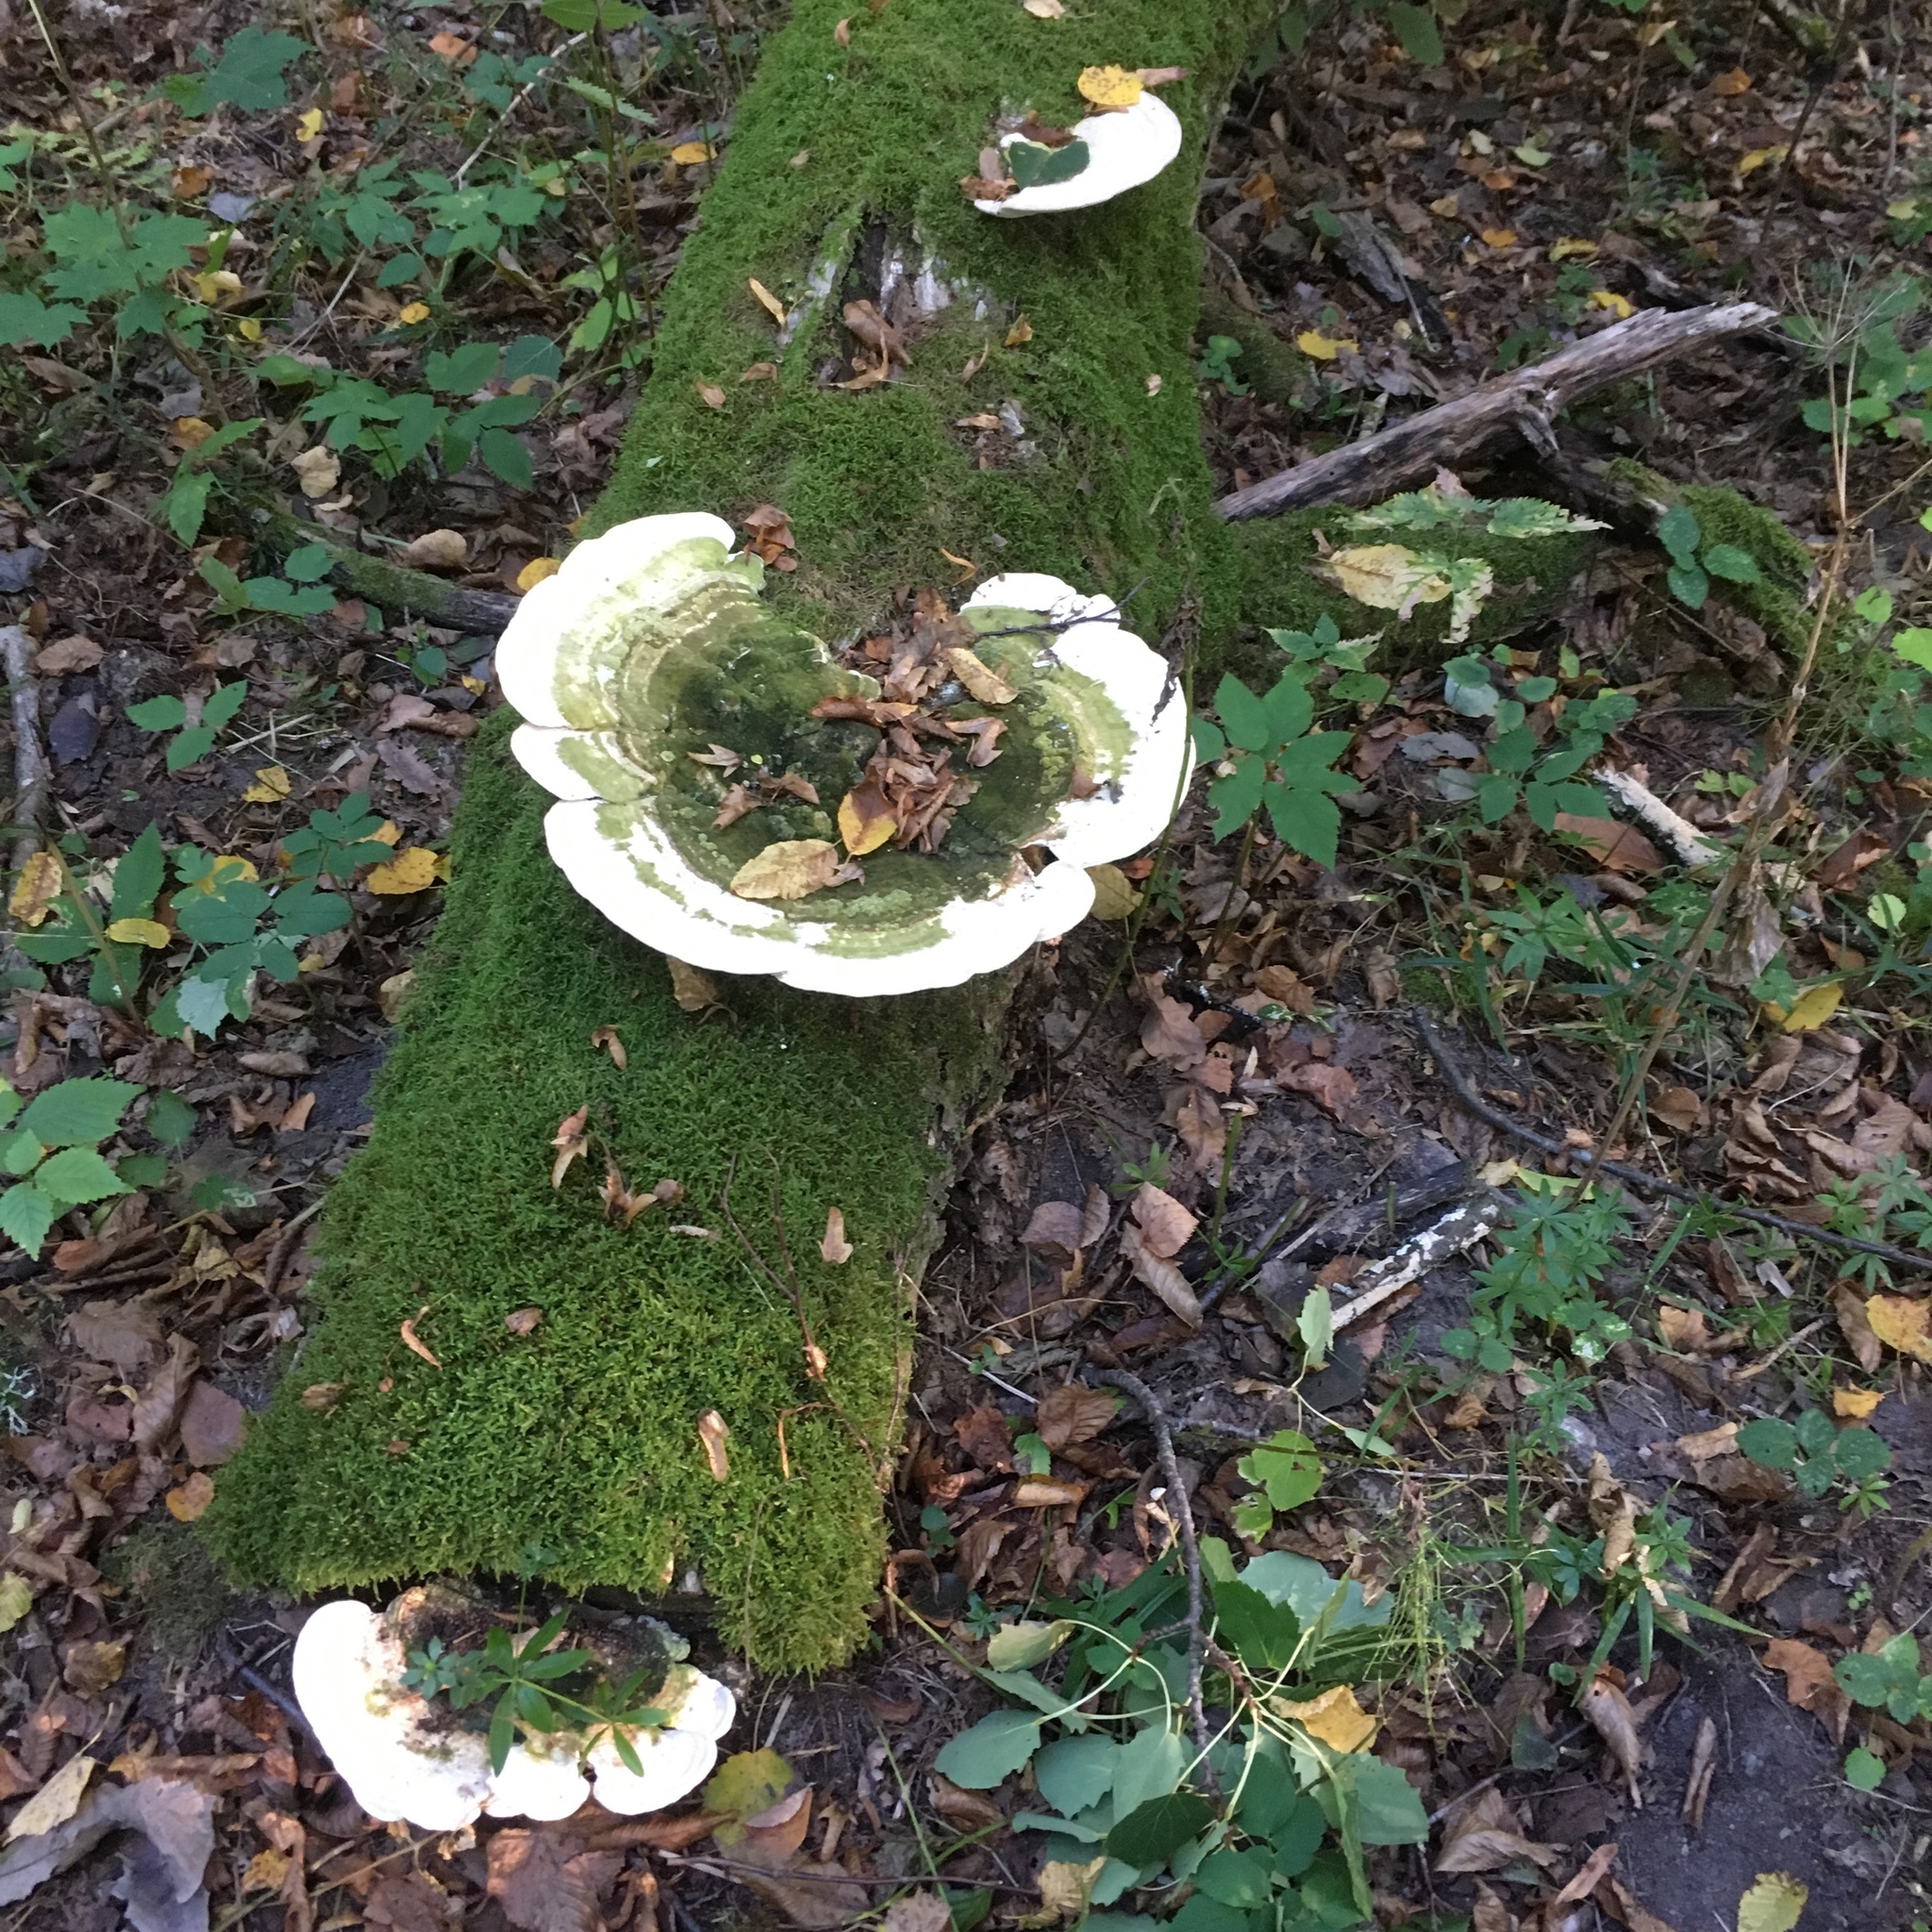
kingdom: Fungi
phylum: Basidiomycota
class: Agaricomycetes
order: Polyporales
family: Polyporaceae
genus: Trametes
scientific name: Trametes gibbosa
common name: Lumpy bracket
